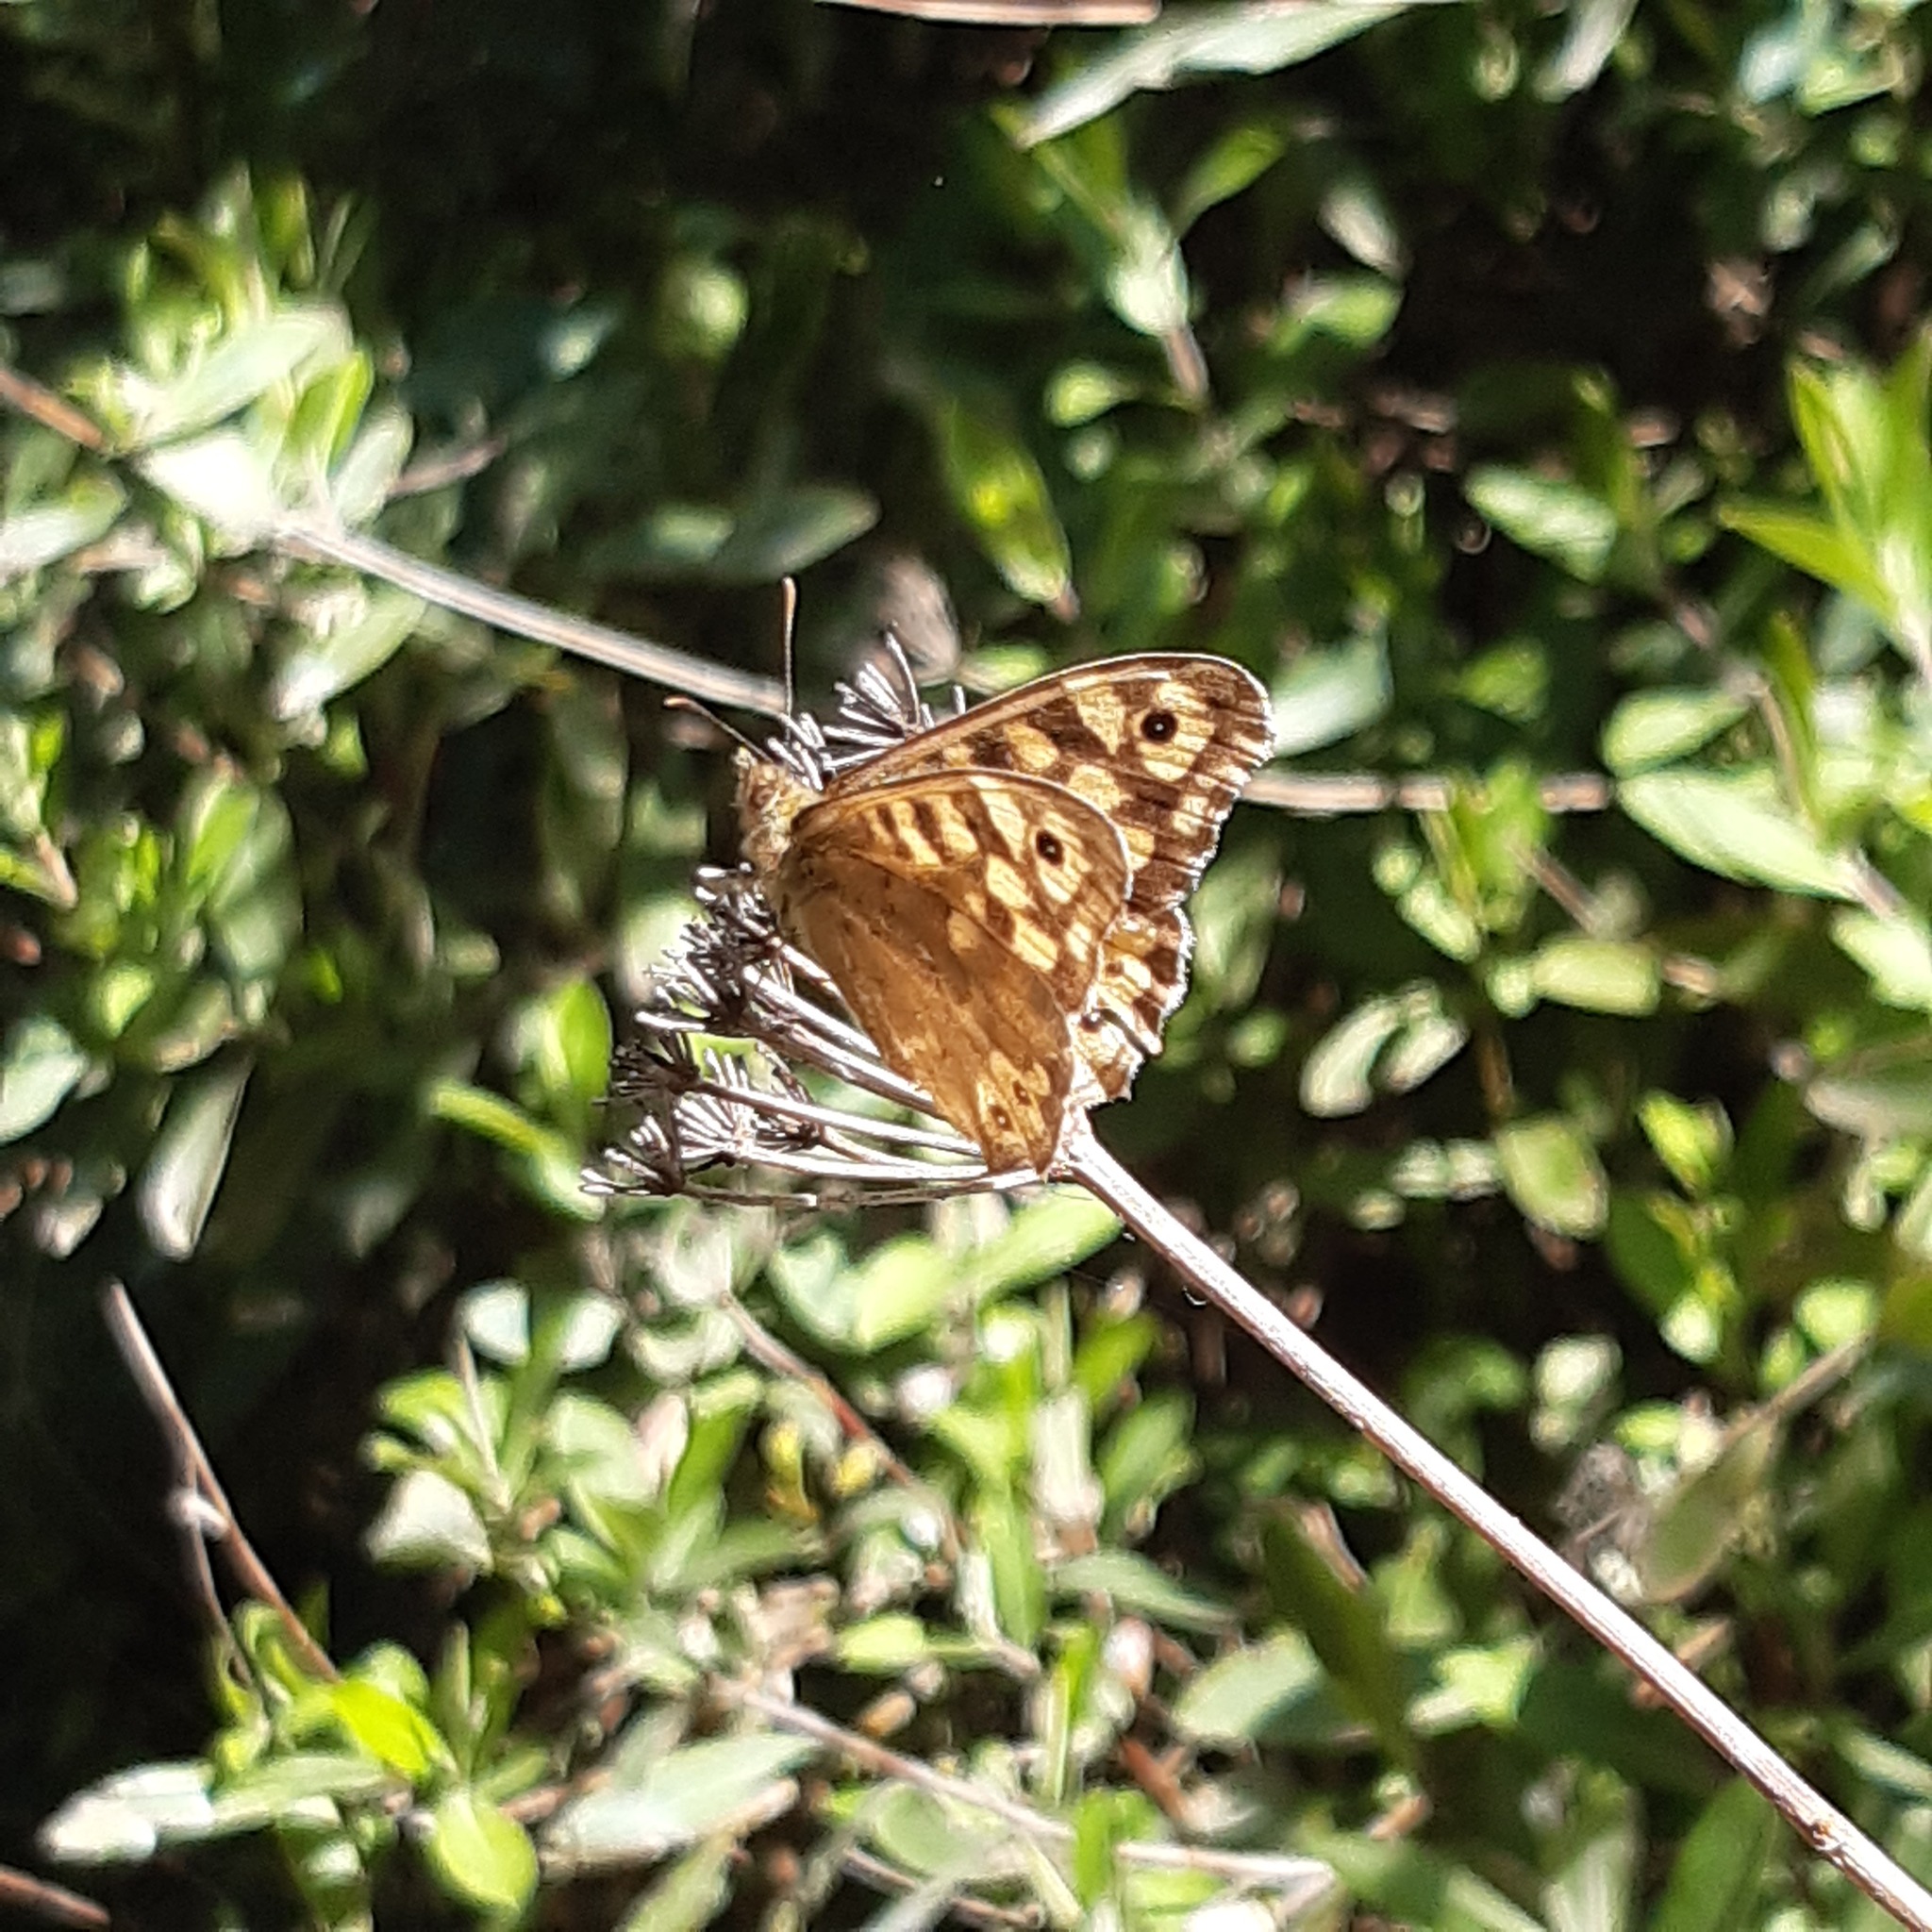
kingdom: Animalia
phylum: Arthropoda
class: Insecta
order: Lepidoptera
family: Nymphalidae
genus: Pararge
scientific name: Pararge aegeria
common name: Speckled wood
